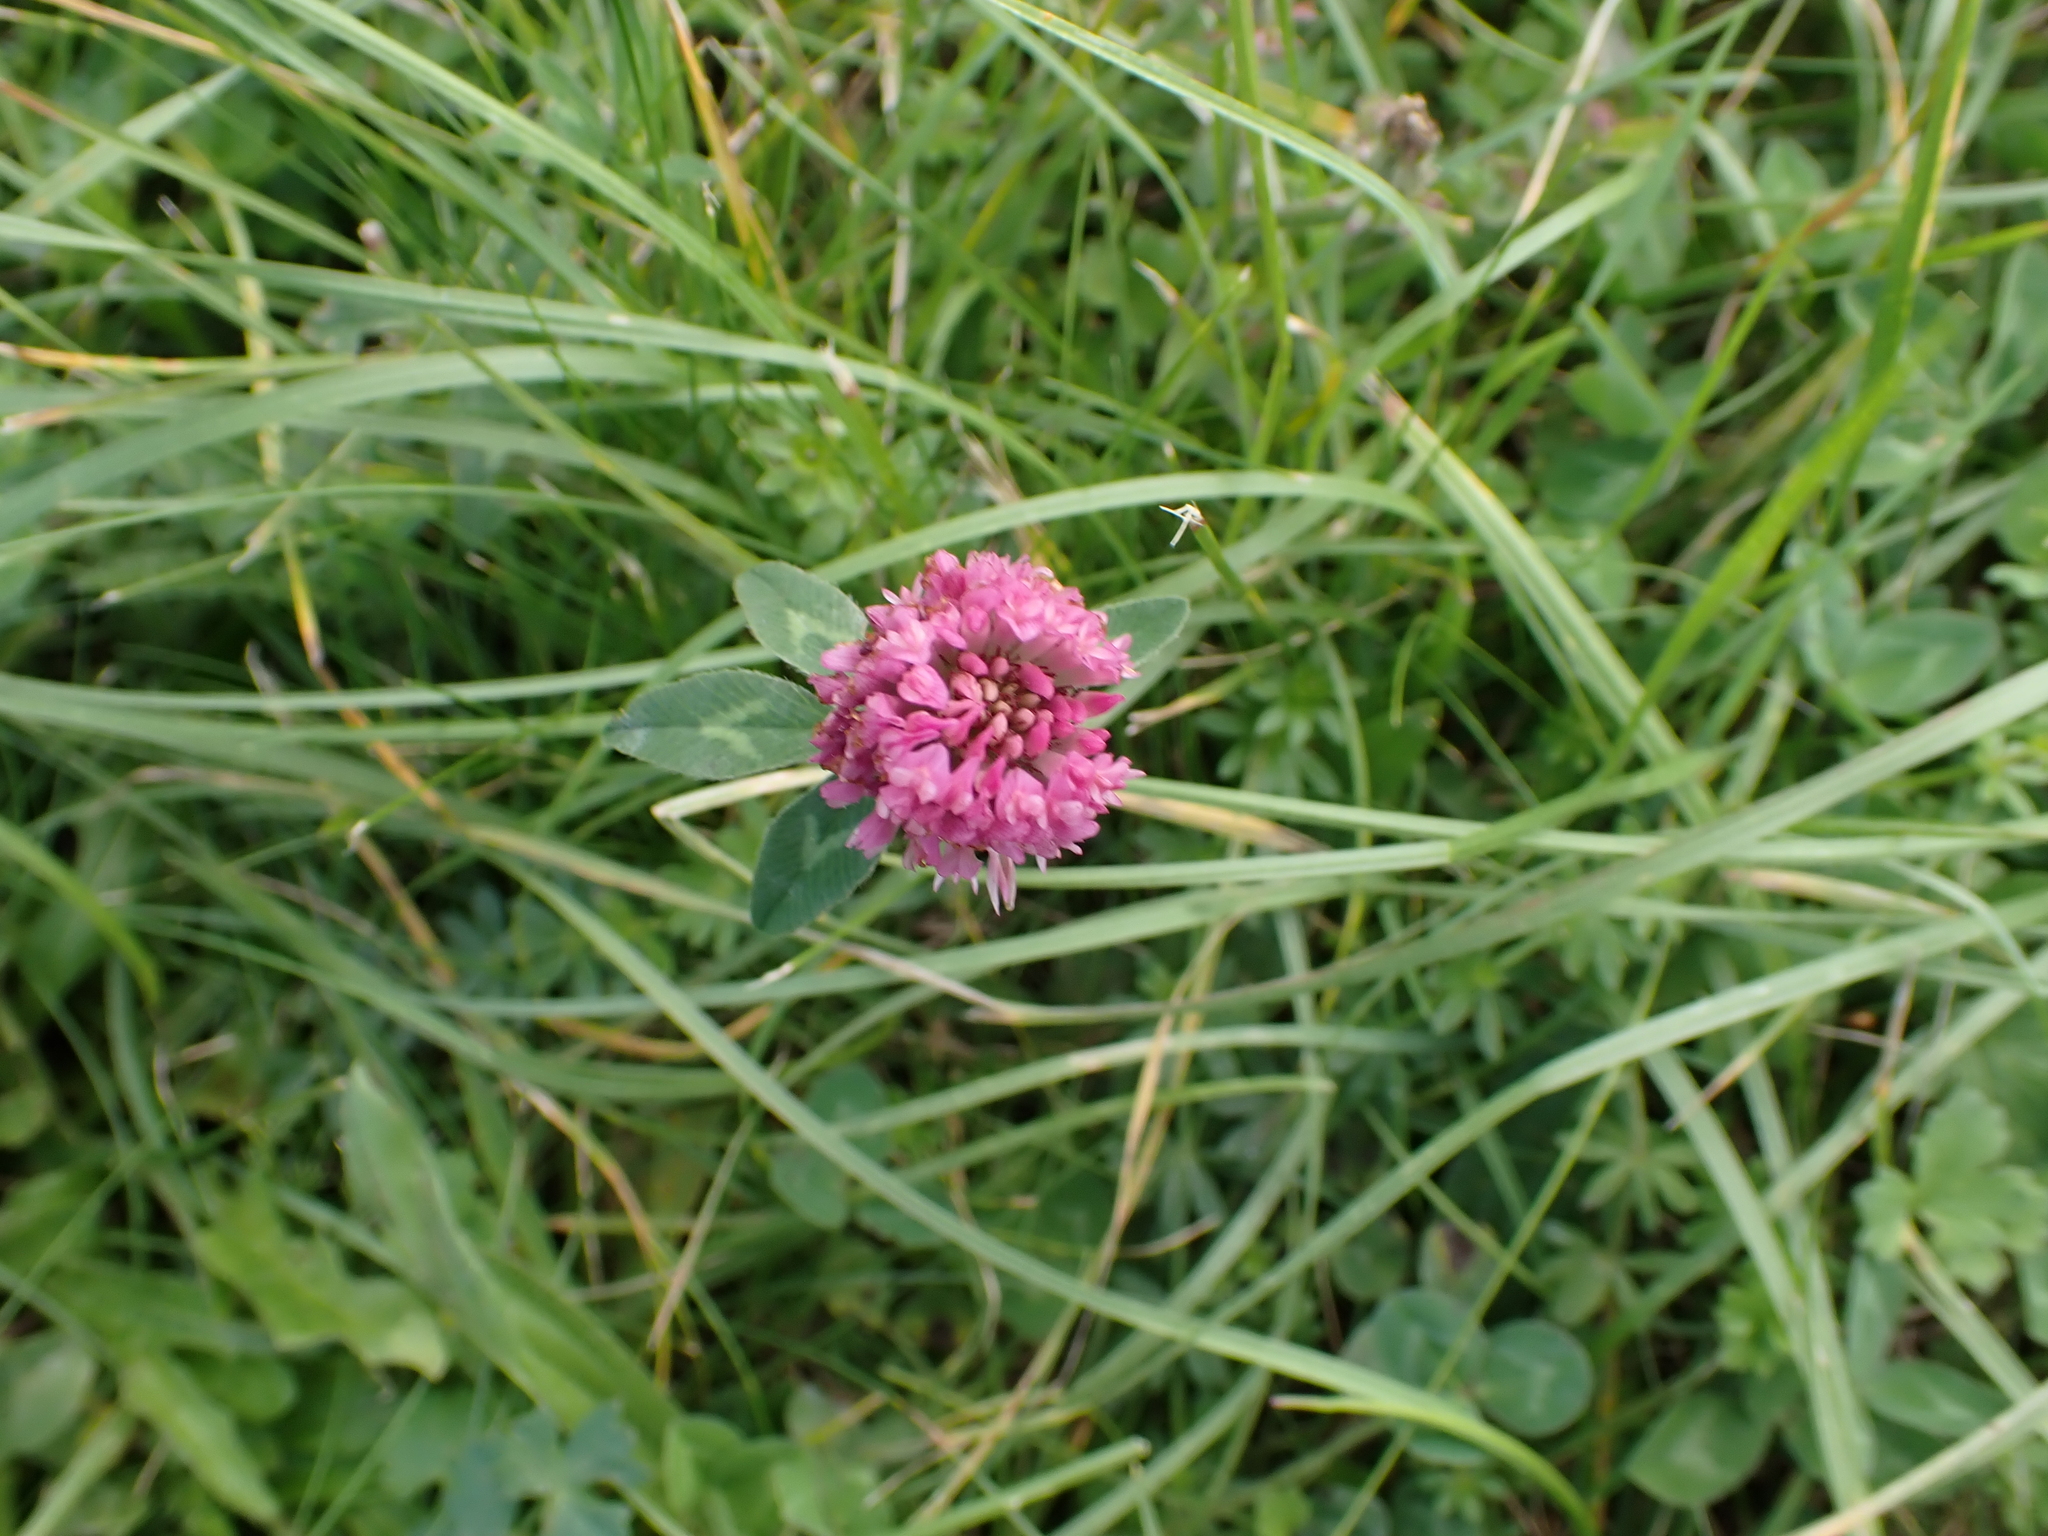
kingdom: Plantae
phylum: Tracheophyta
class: Magnoliopsida
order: Fabales
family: Fabaceae
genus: Trifolium
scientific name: Trifolium pratense
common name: Red clover
